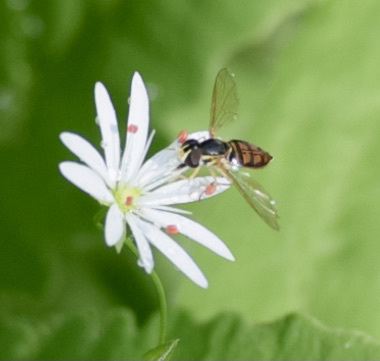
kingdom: Animalia
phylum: Arthropoda
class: Insecta
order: Diptera
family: Syrphidae
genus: Toxomerus
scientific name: Toxomerus marginatus
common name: Syrphid fly
